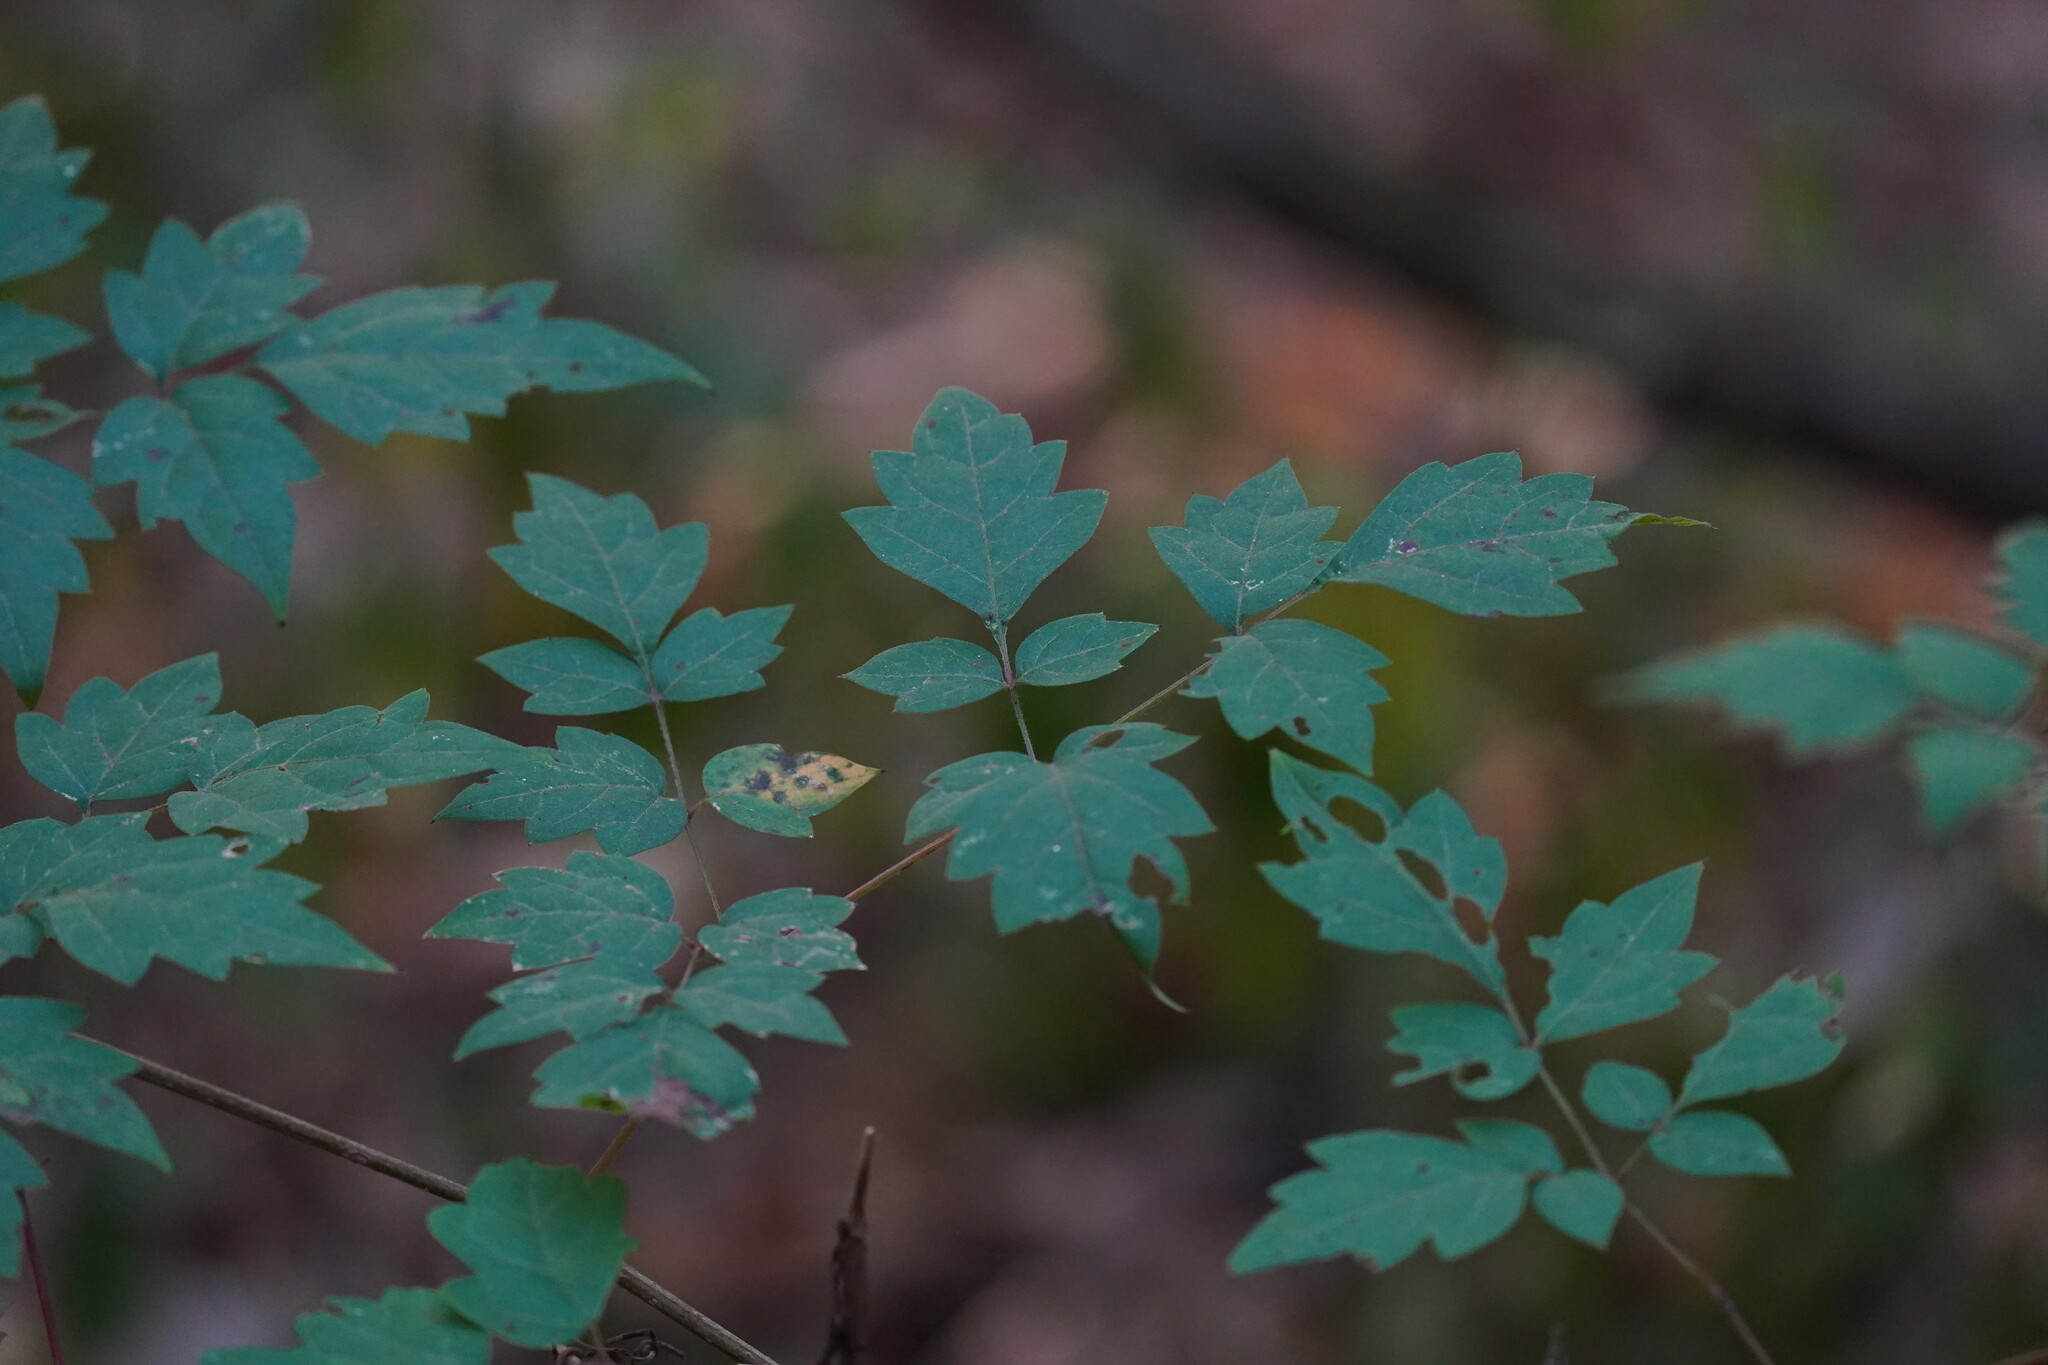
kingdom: Plantae
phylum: Tracheophyta
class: Magnoliopsida
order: Vitales
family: Vitaceae
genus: Nekemias
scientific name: Nekemias arborea
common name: Peppervine
